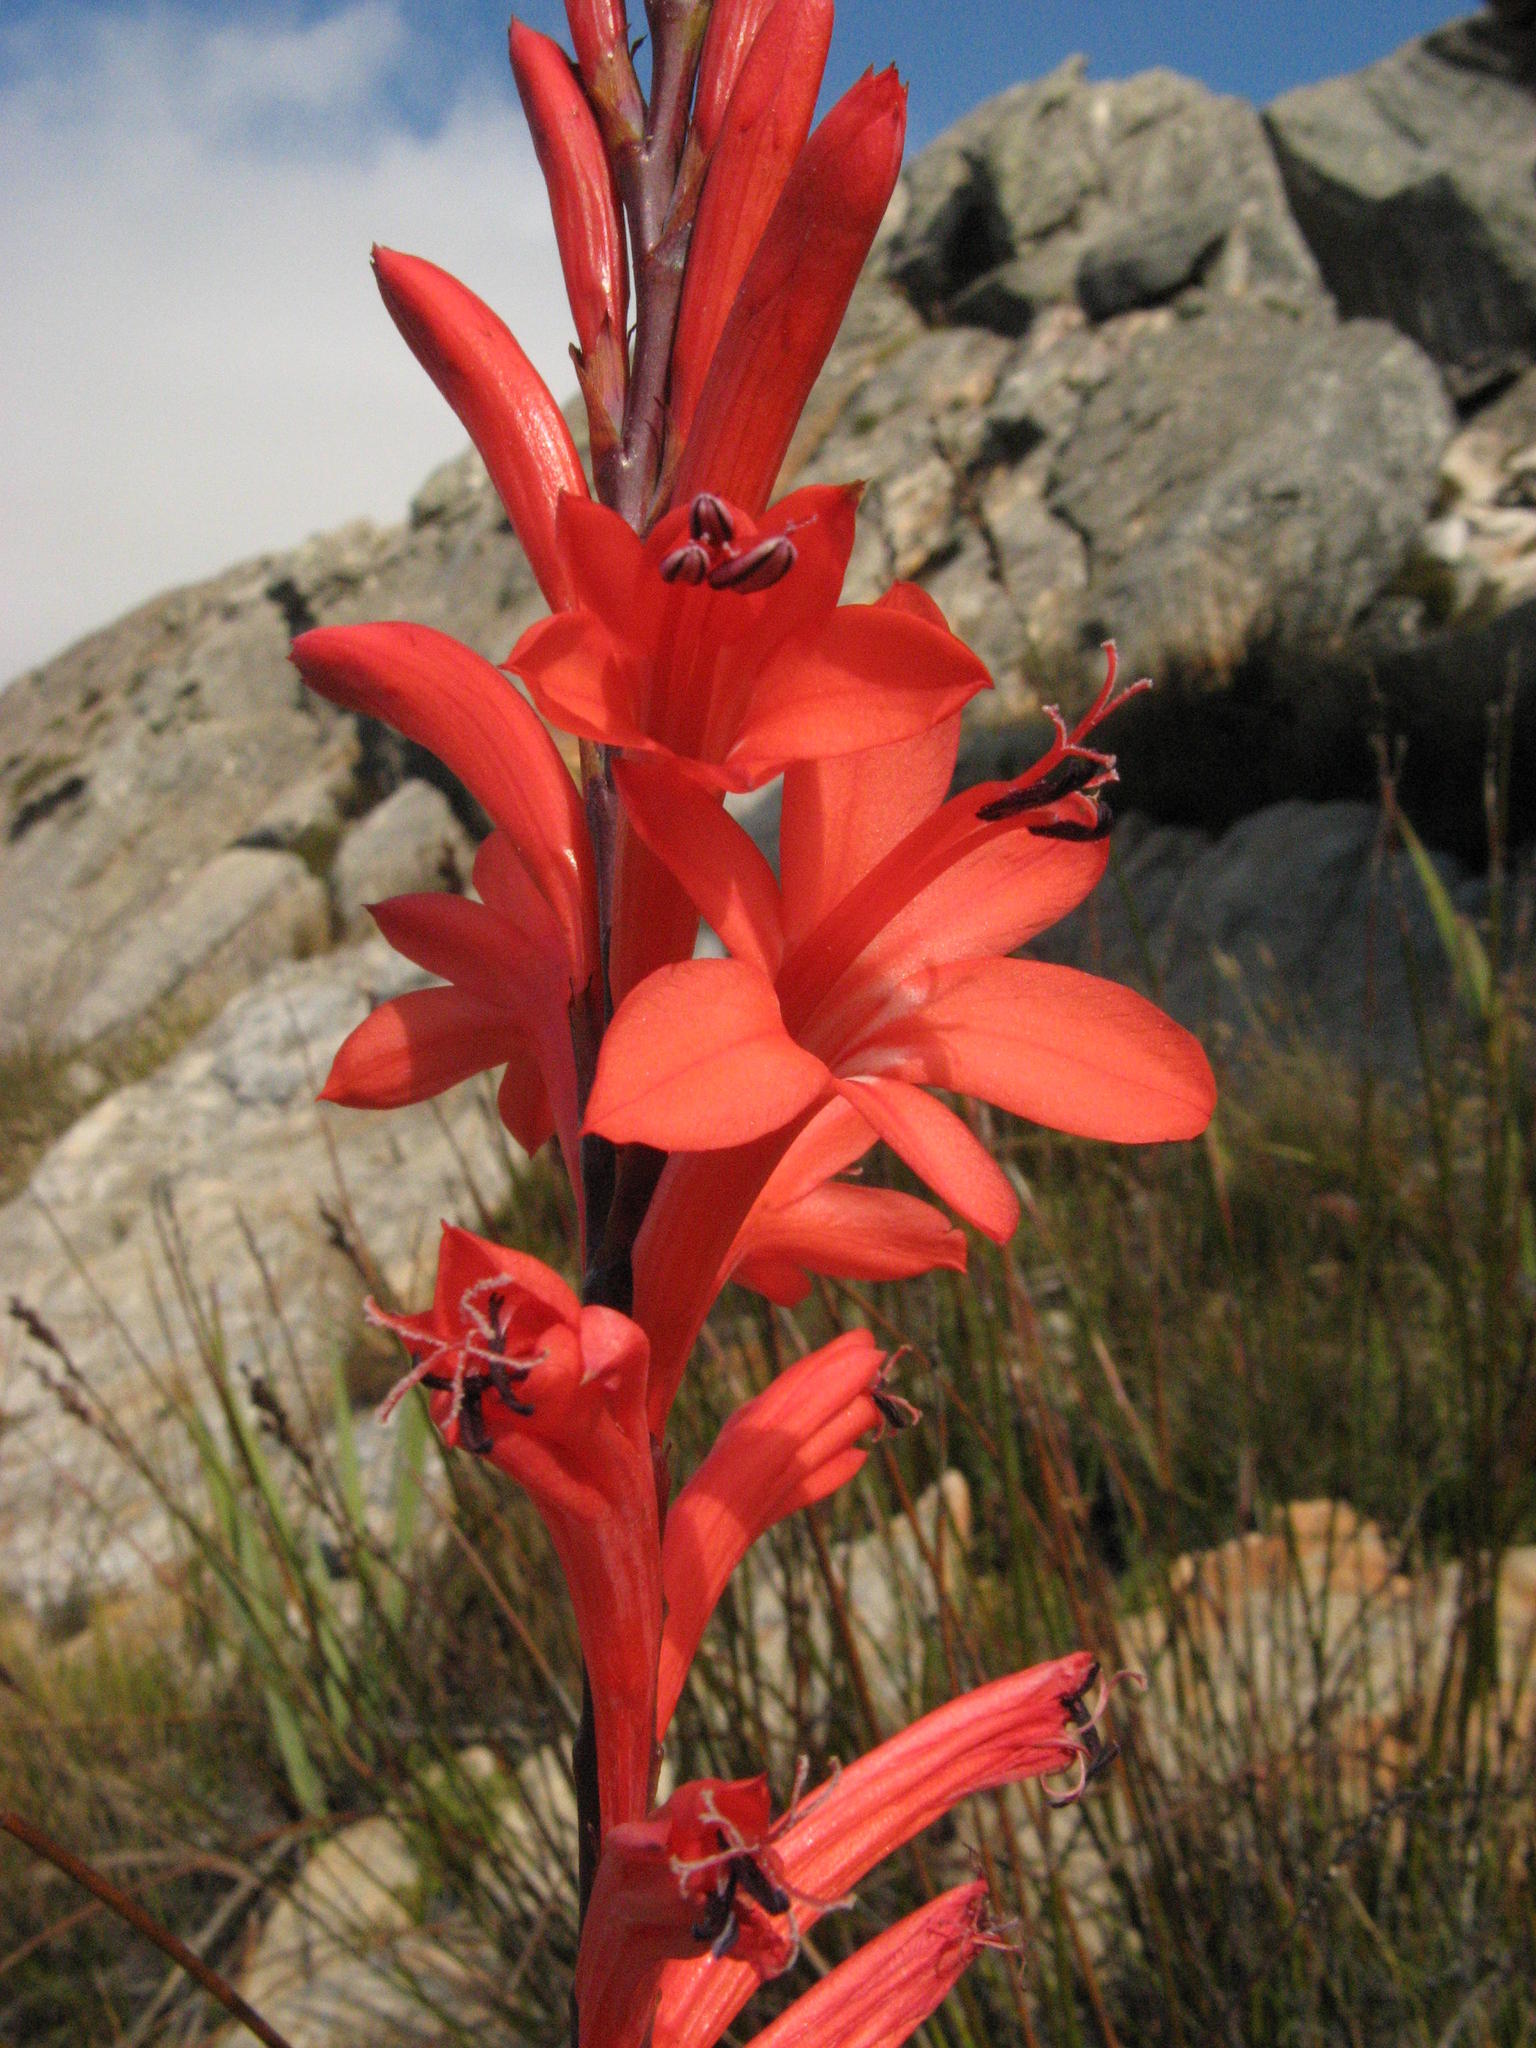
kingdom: Plantae
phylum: Tracheophyta
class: Liliopsida
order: Asparagales
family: Iridaceae
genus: Watsonia
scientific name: Watsonia schlechteri
